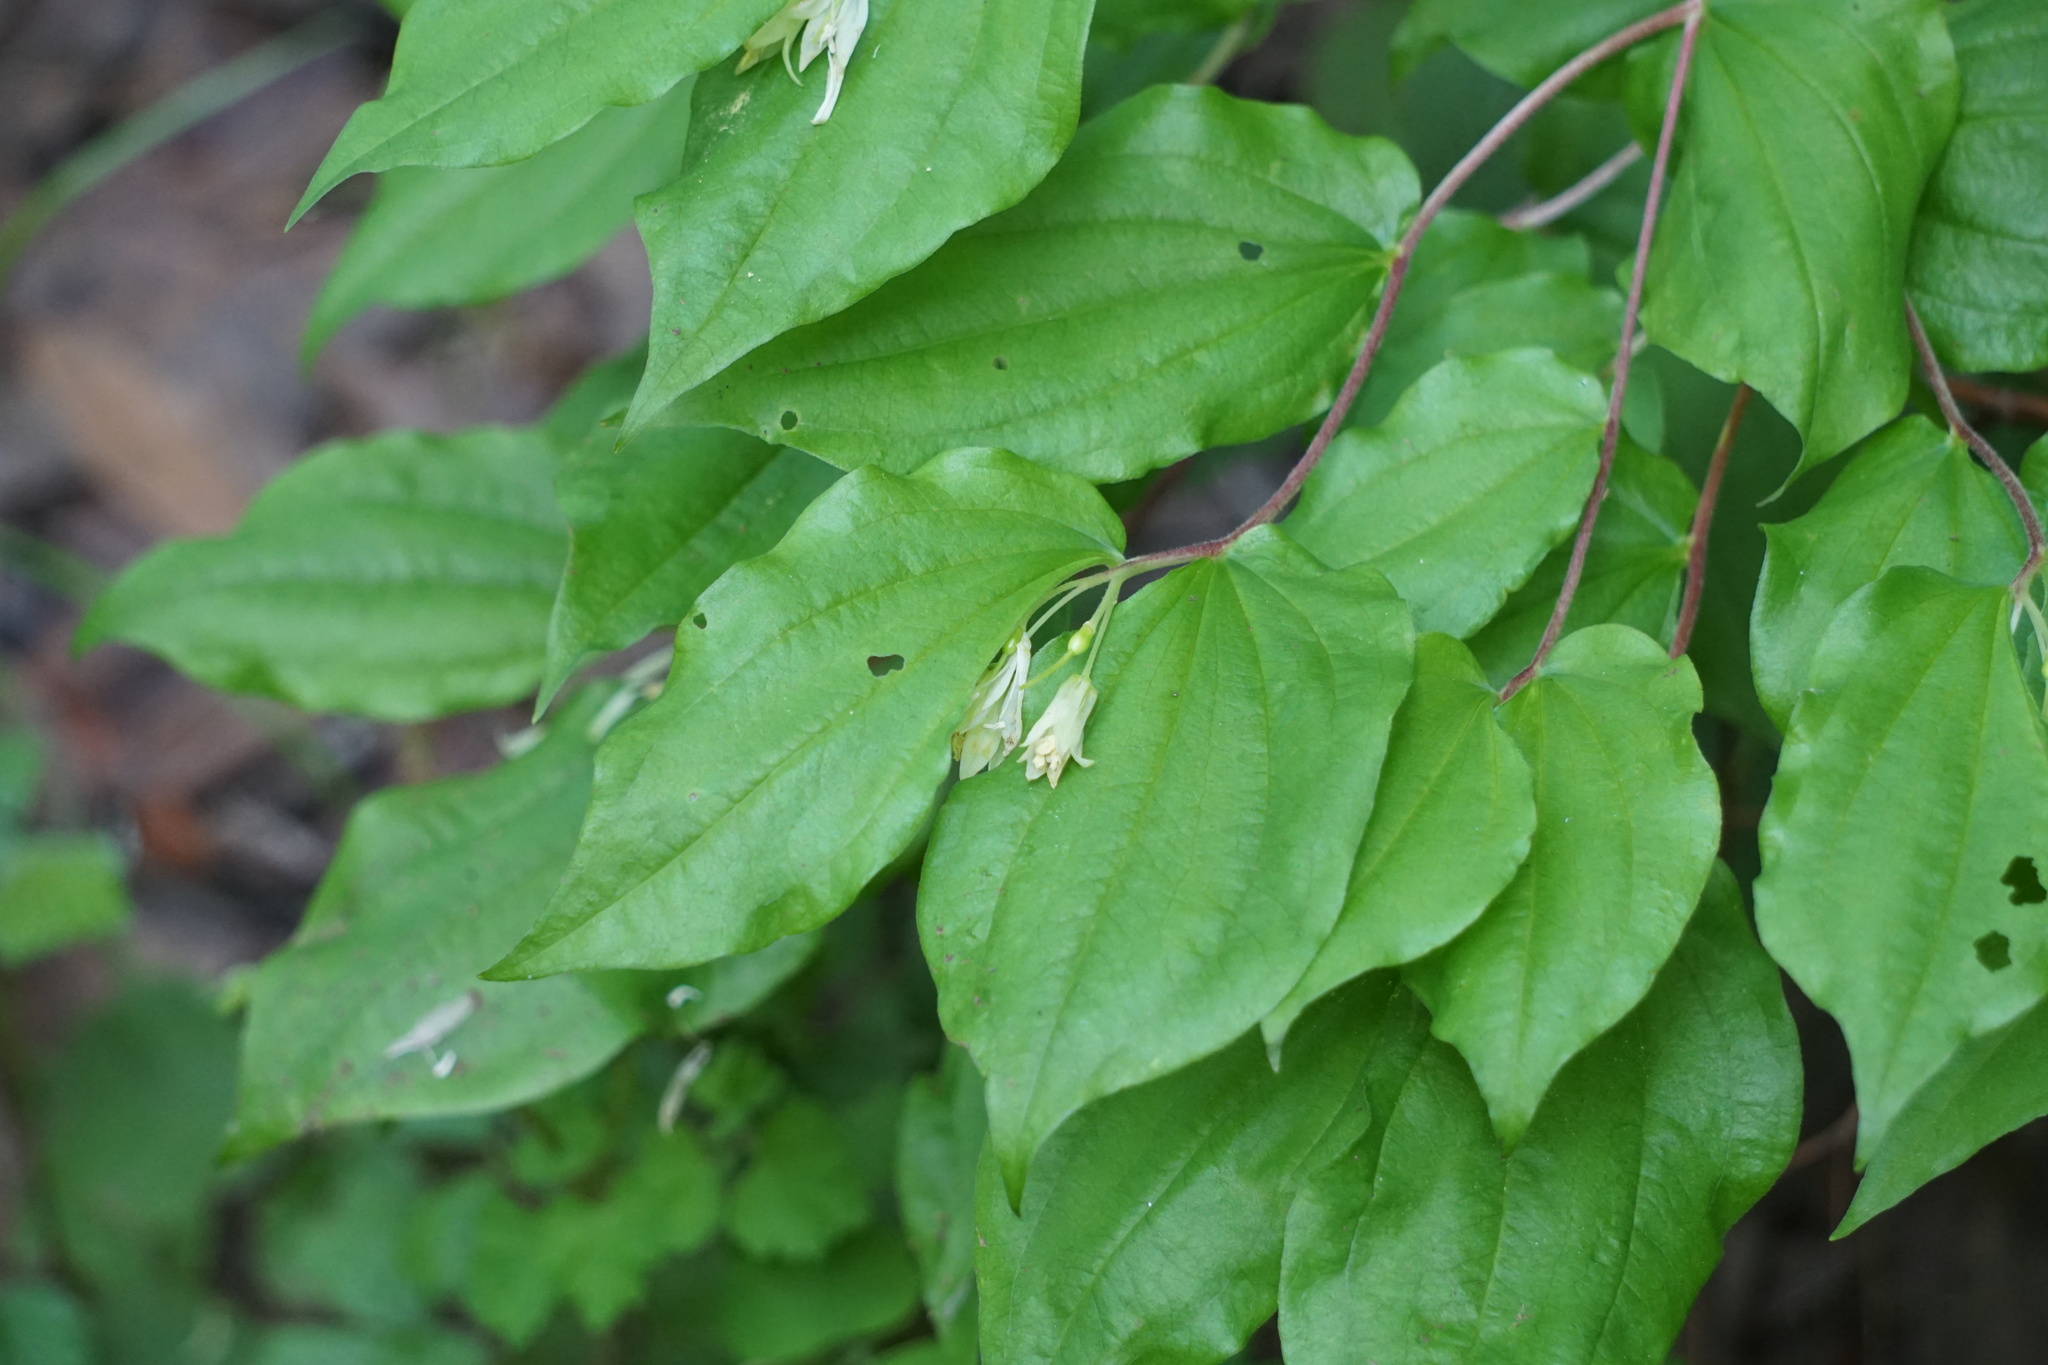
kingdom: Plantae
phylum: Tracheophyta
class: Liliopsida
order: Liliales
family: Liliaceae
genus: Prosartes
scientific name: Prosartes hookeri
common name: Fairy-bells
